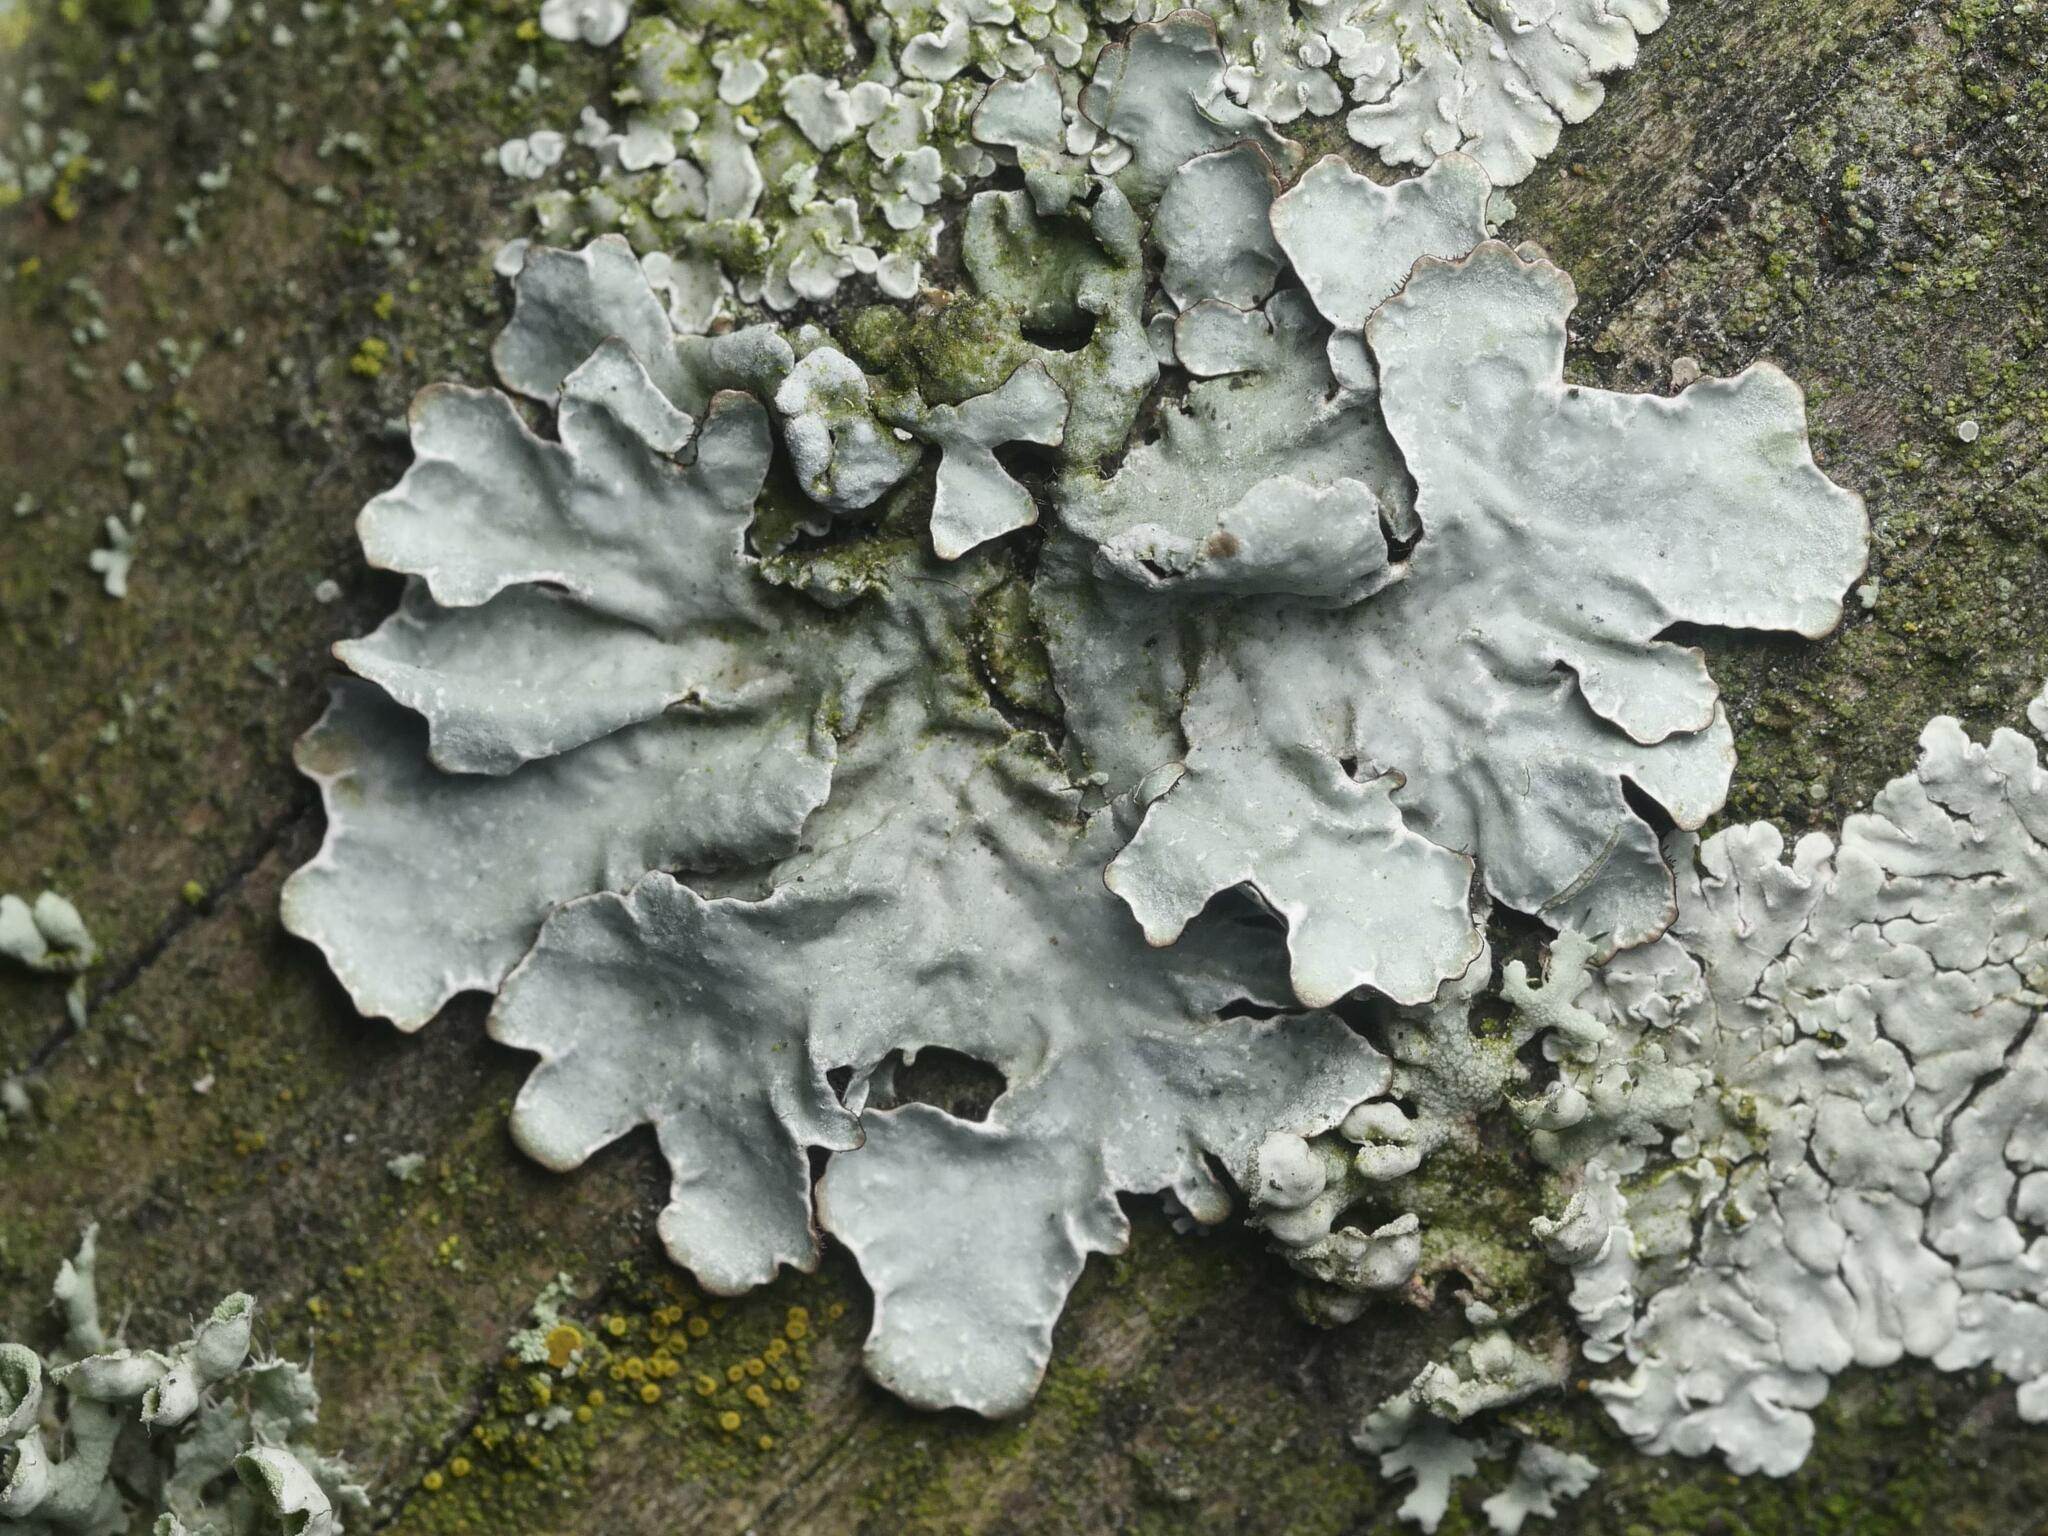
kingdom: Fungi
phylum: Ascomycota
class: Lecanoromycetes
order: Lecanorales
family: Parmeliaceae
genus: Parmelia
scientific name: Parmelia sulcata
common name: Netted shield lichen
